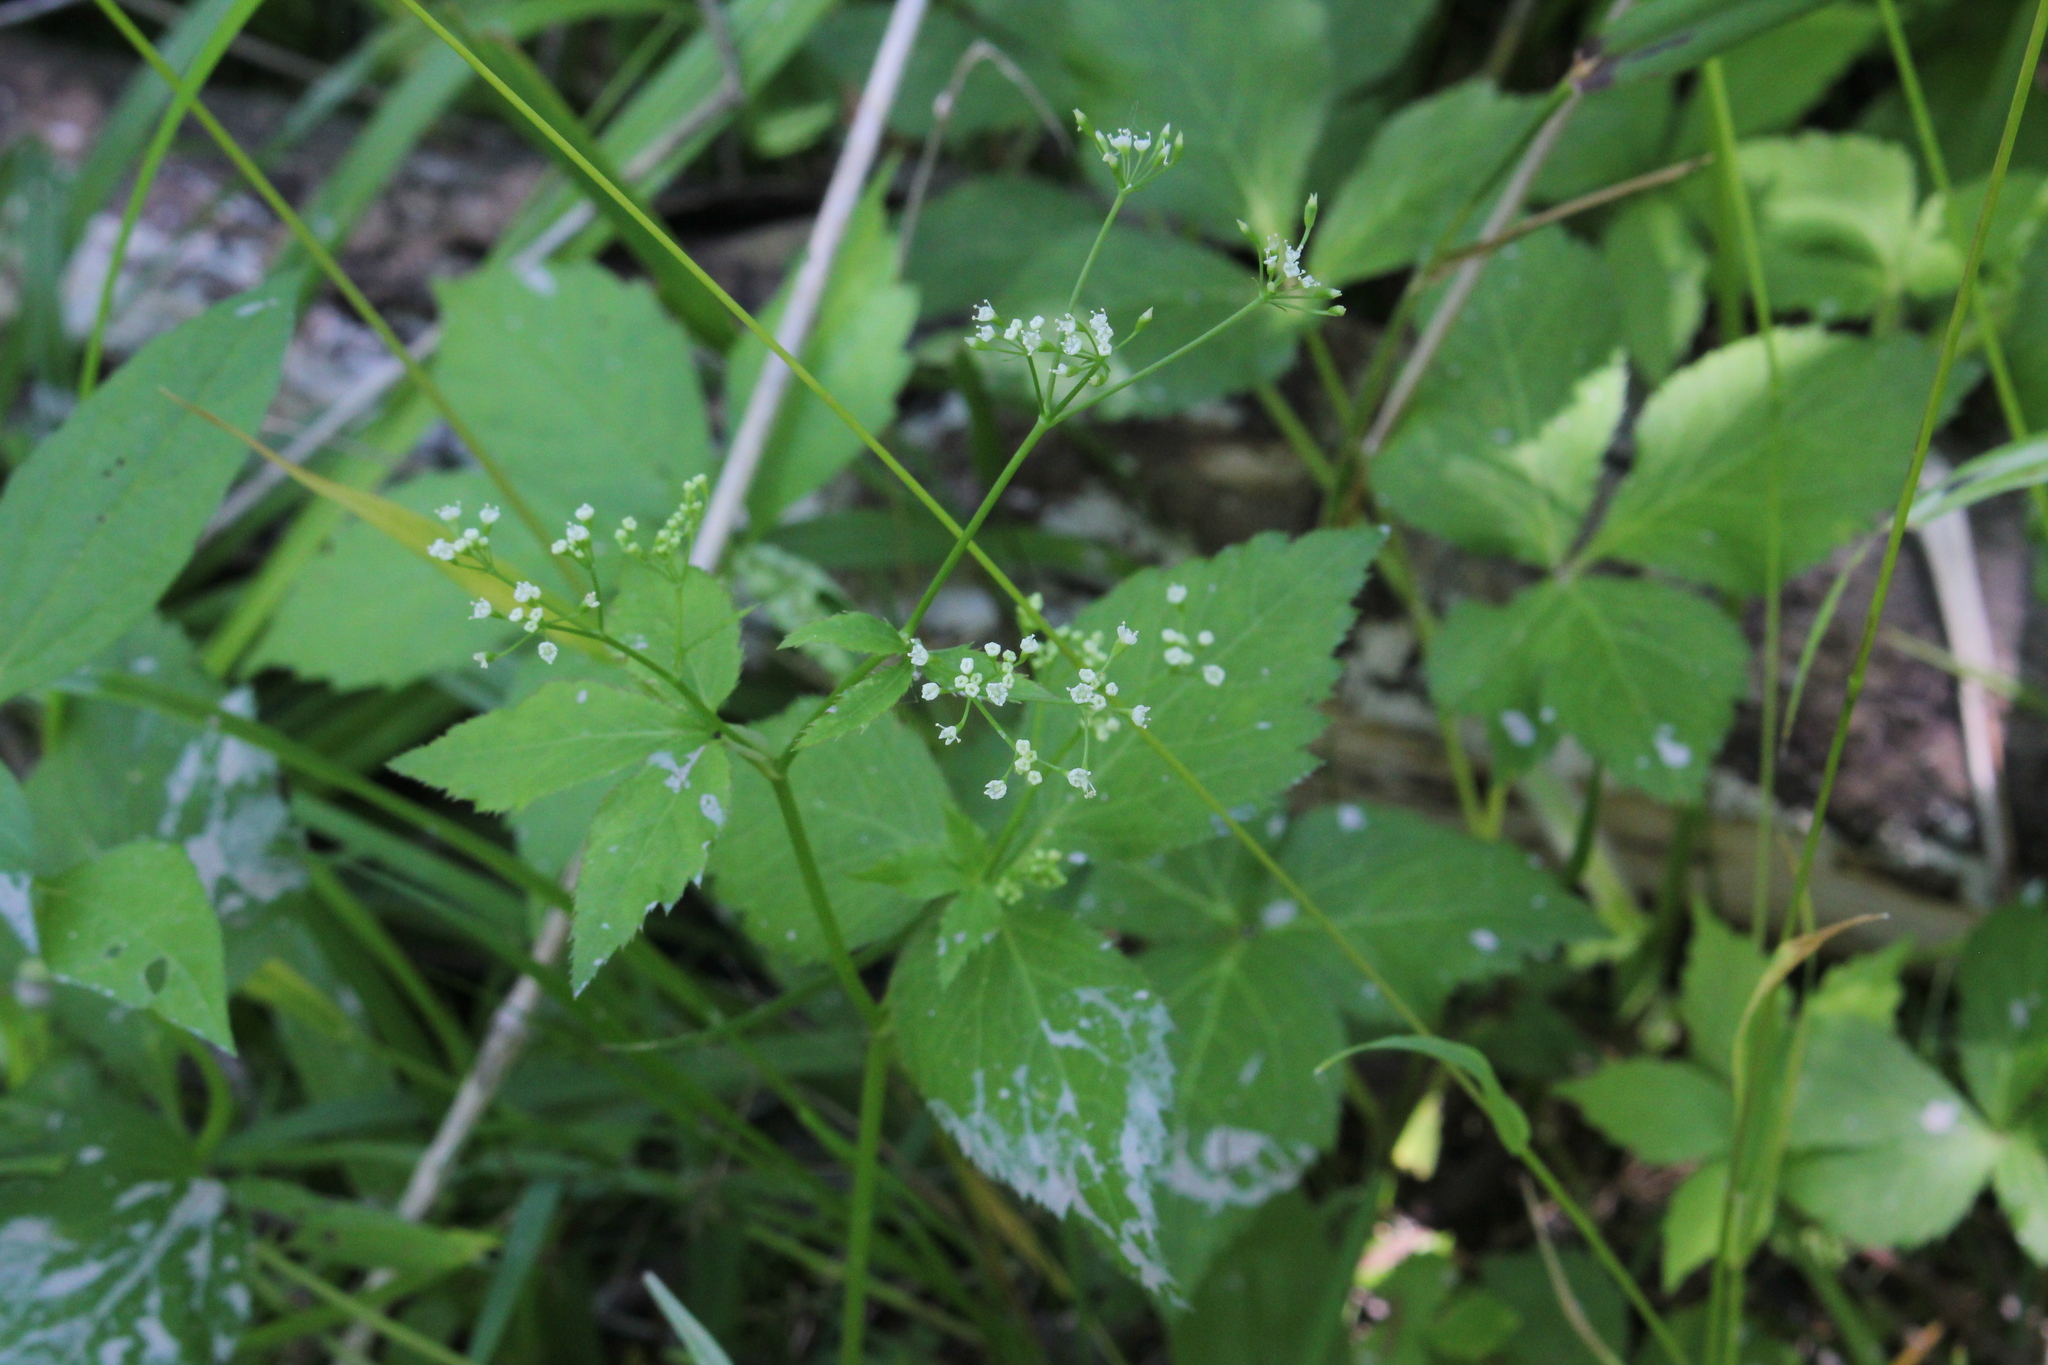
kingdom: Plantae
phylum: Tracheophyta
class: Magnoliopsida
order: Apiales
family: Apiaceae
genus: Cryptotaenia
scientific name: Cryptotaenia canadensis
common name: Honewort
